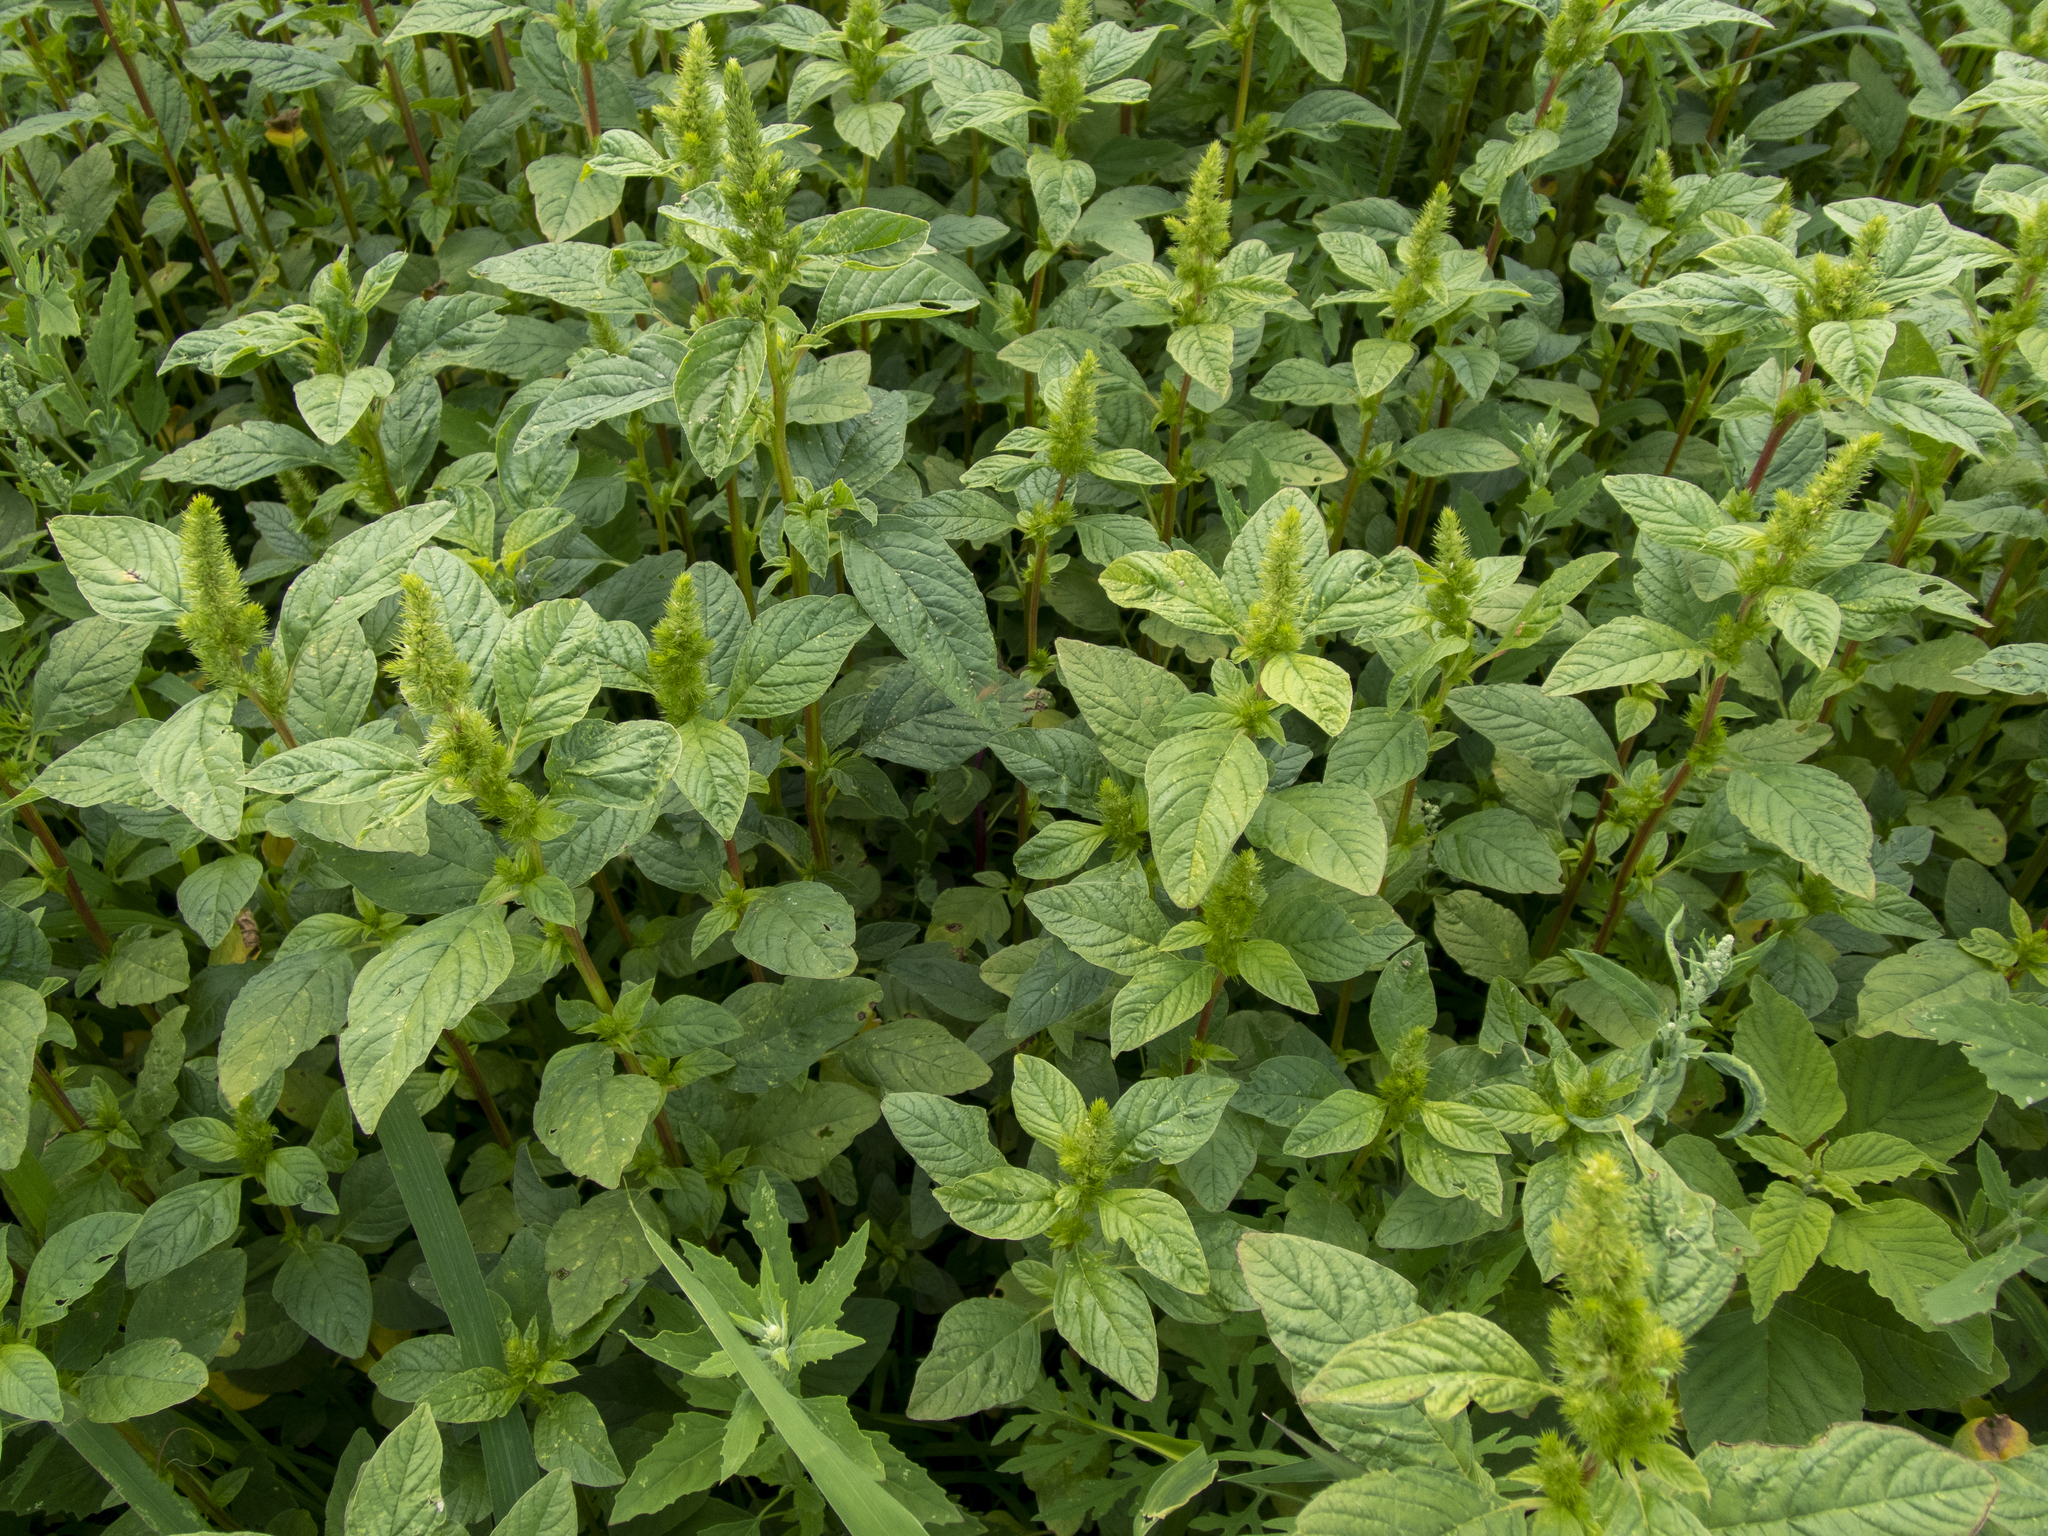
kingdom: Plantae
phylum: Tracheophyta
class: Magnoliopsida
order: Caryophyllales
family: Amaranthaceae
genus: Amaranthus
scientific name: Amaranthus retroflexus
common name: Redroot amaranth
